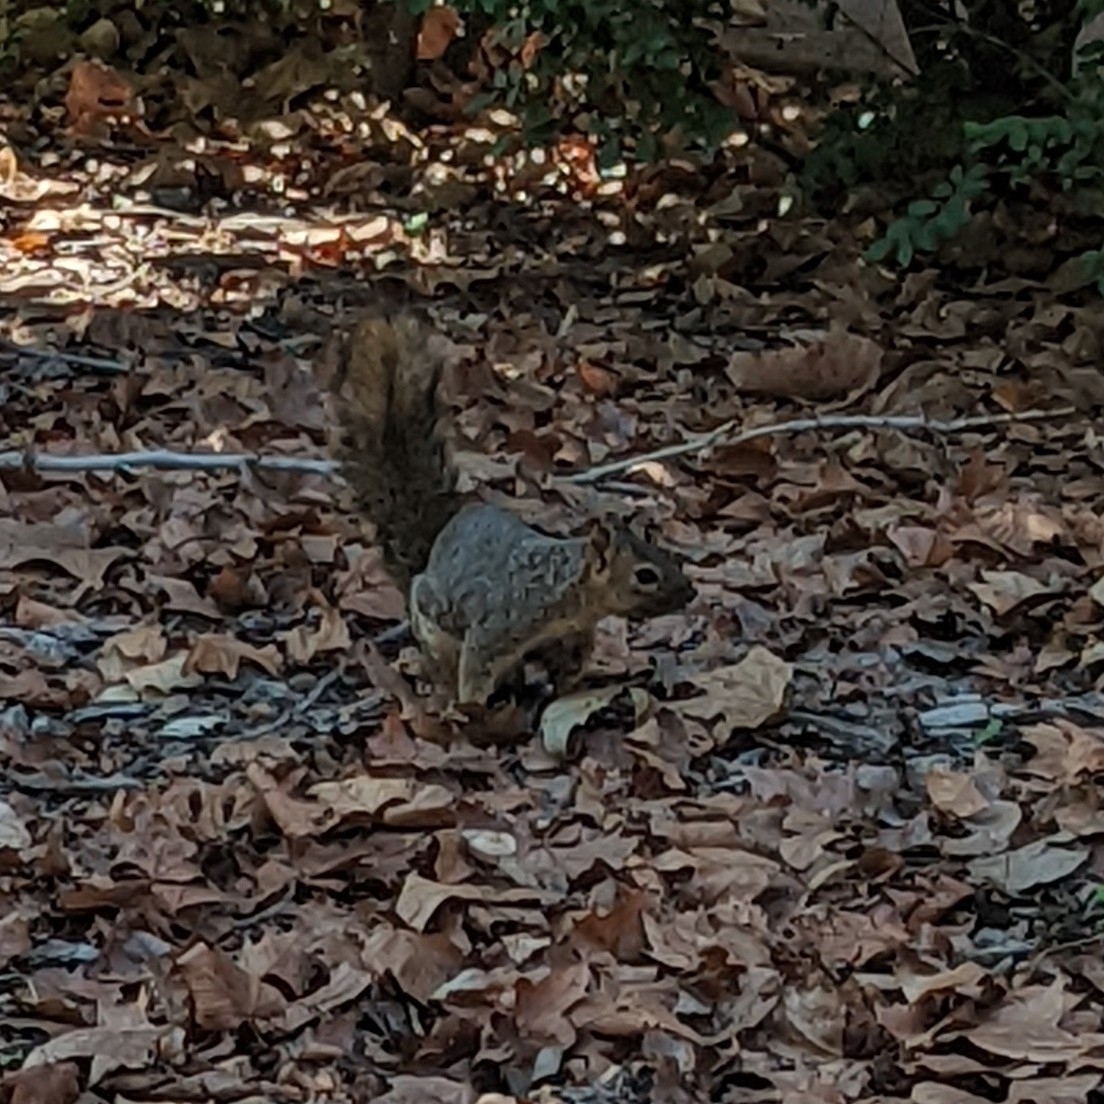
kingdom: Animalia
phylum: Chordata
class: Mammalia
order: Rodentia
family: Sciuridae
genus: Sciurus
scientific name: Sciurus niger
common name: Fox squirrel
